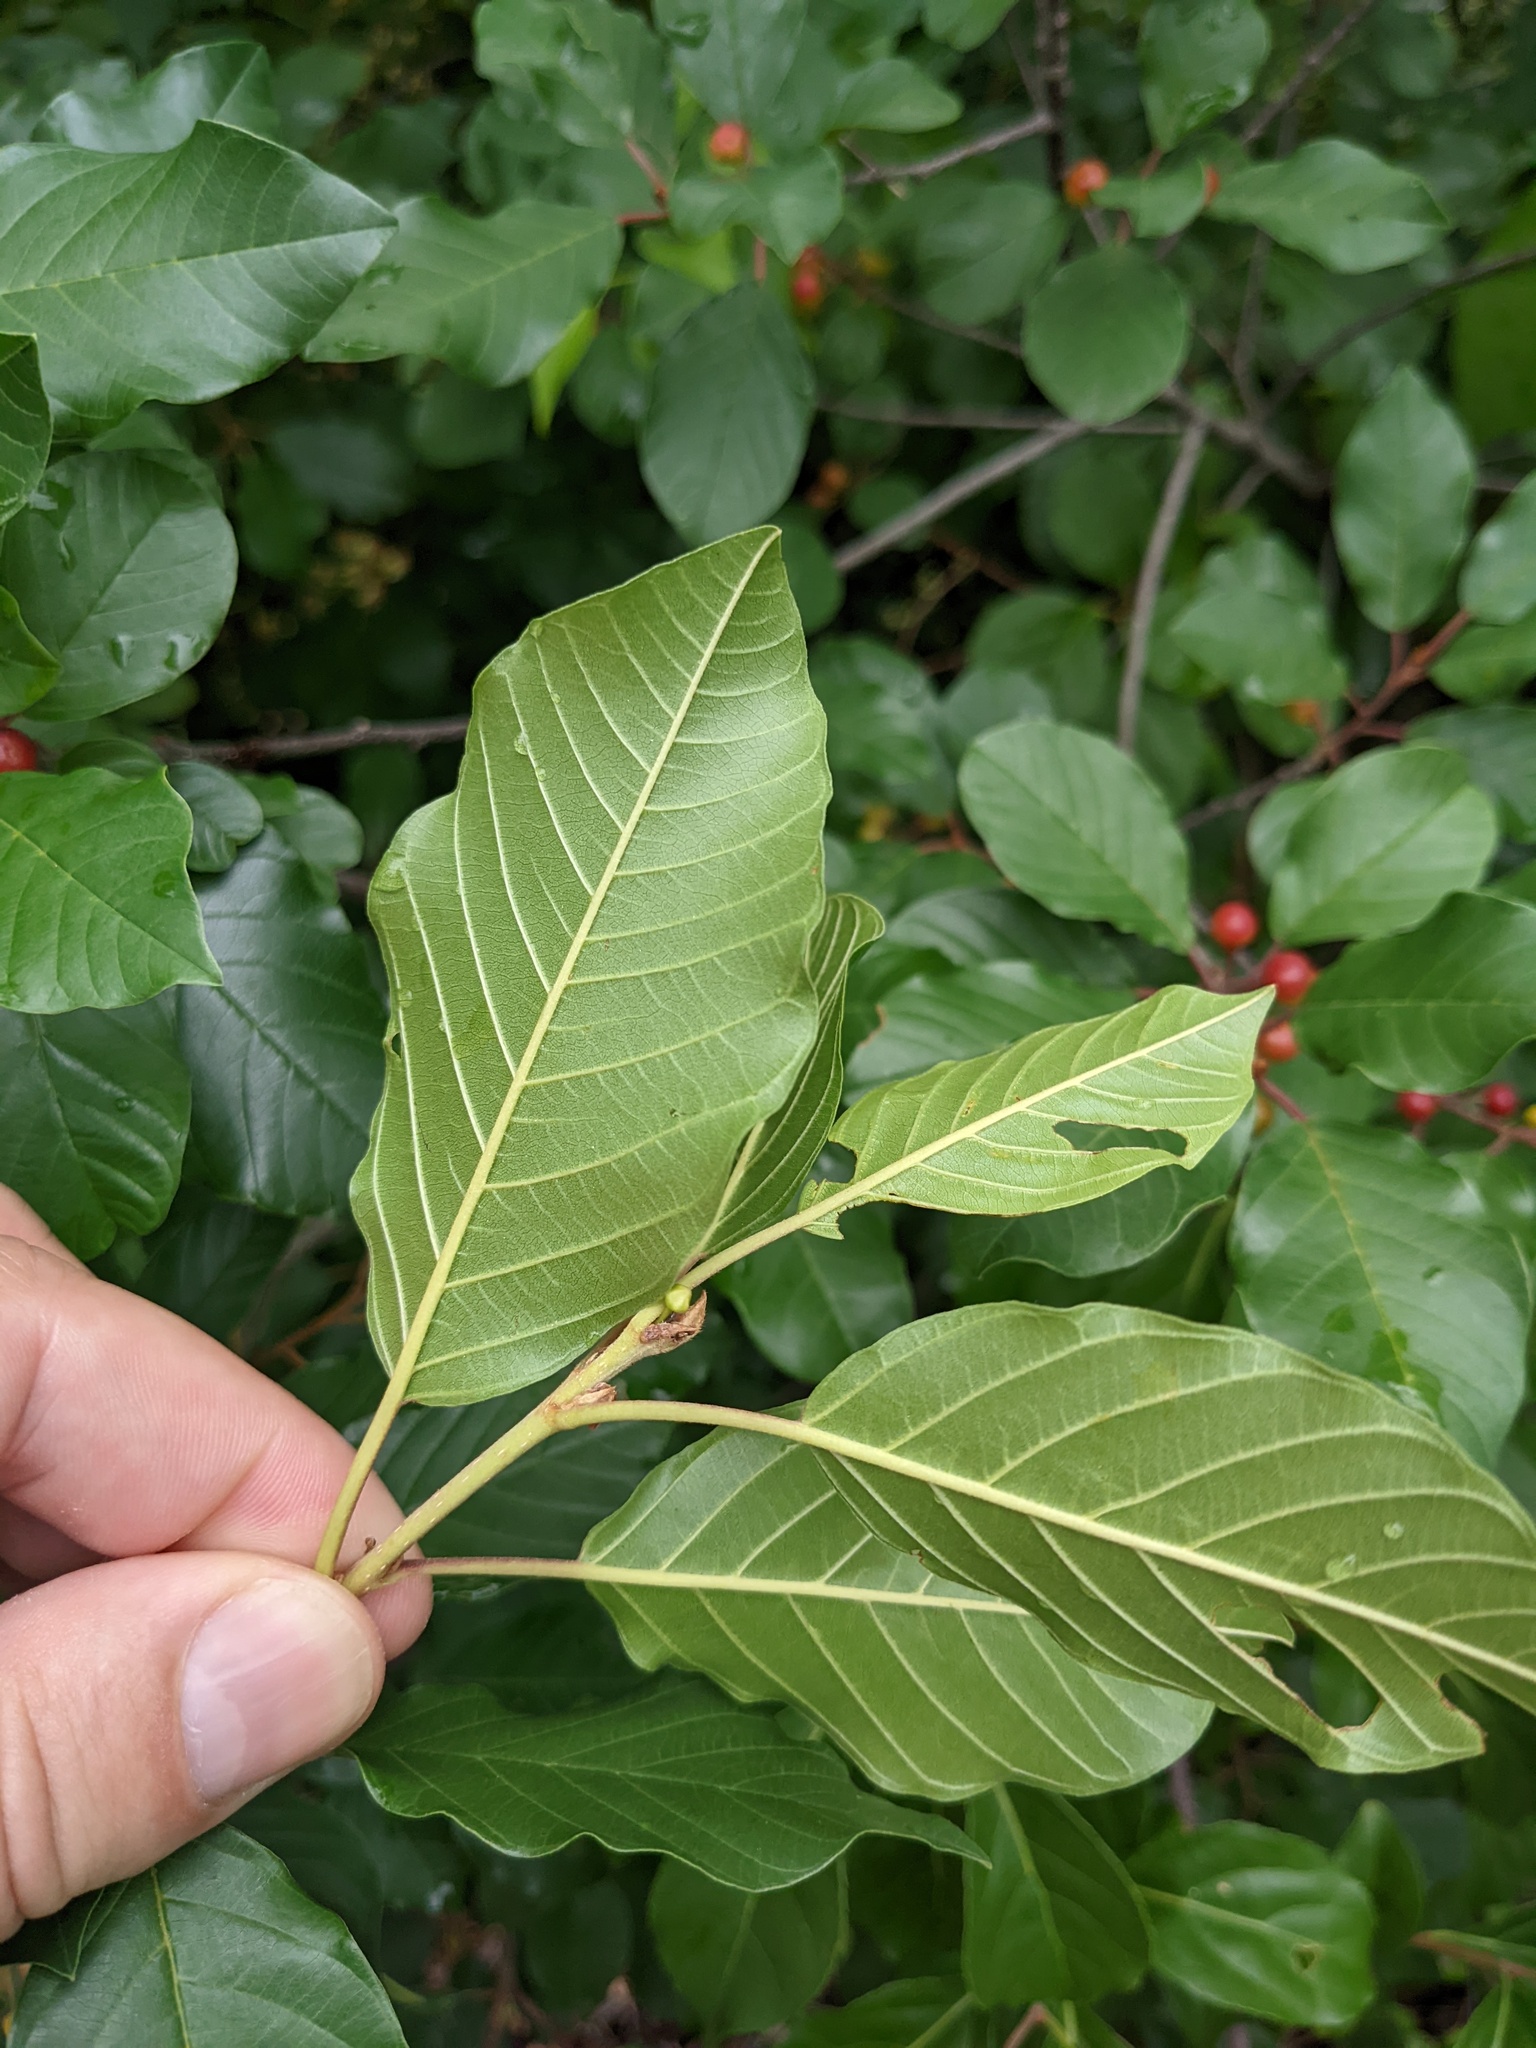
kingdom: Plantae
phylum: Tracheophyta
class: Magnoliopsida
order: Rosales
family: Rhamnaceae
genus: Frangula
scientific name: Frangula alnus
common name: Alder buckthorn
